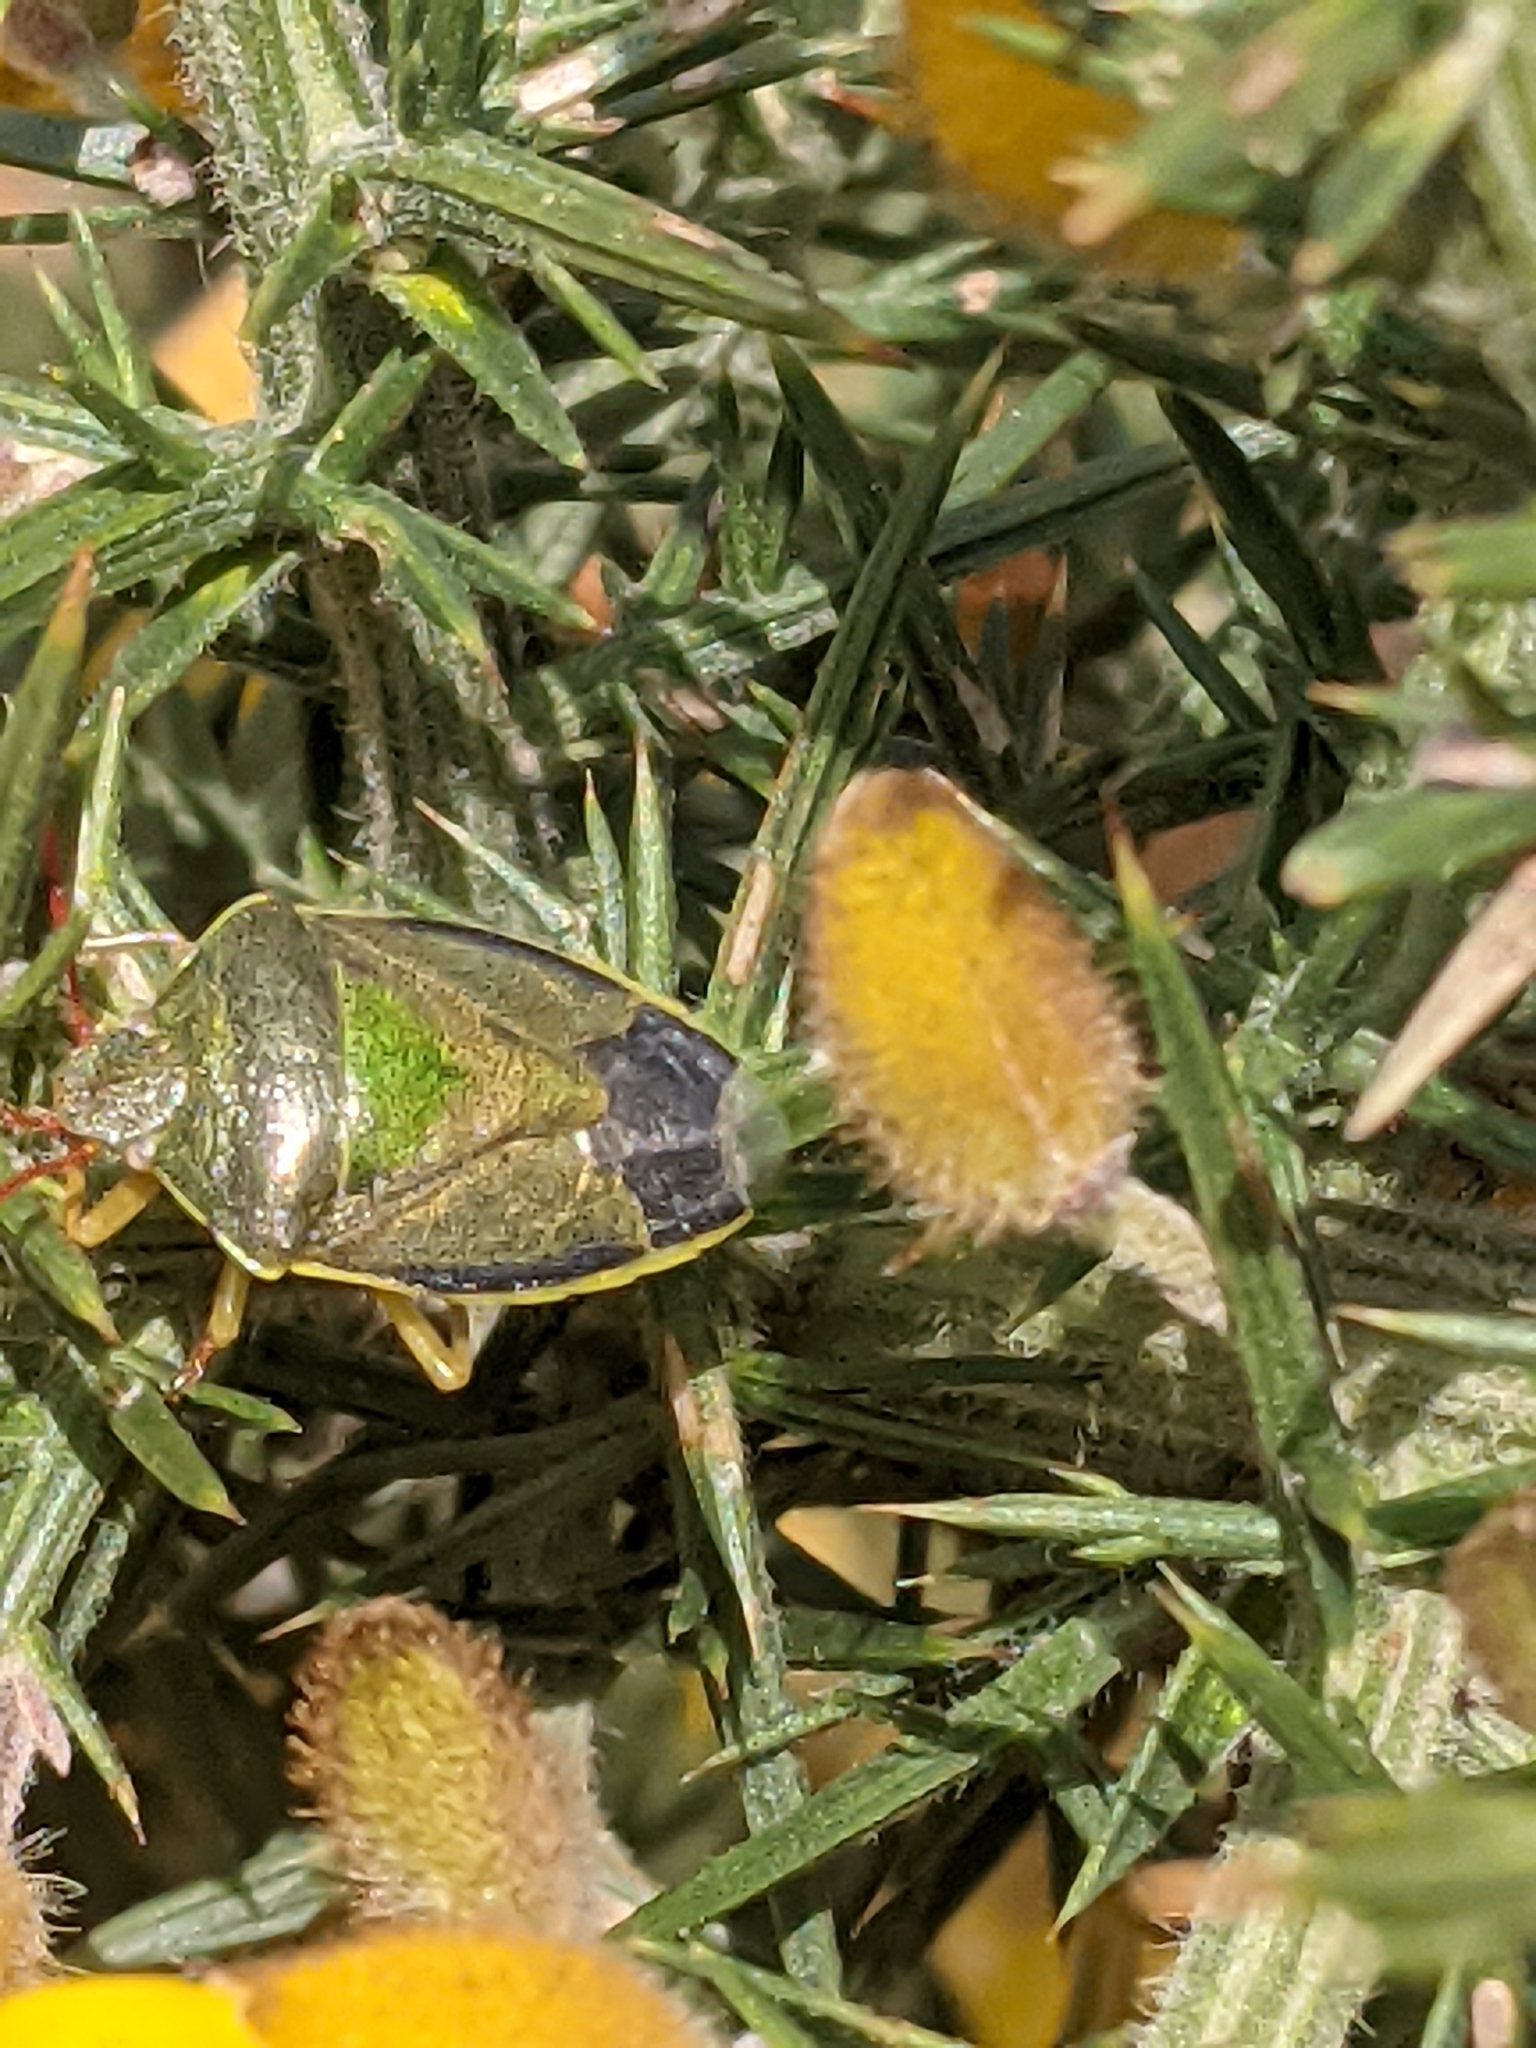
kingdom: Animalia
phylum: Arthropoda
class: Insecta
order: Hemiptera
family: Pentatomidae
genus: Piezodorus
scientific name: Piezodorus lituratus
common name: Stink bug
